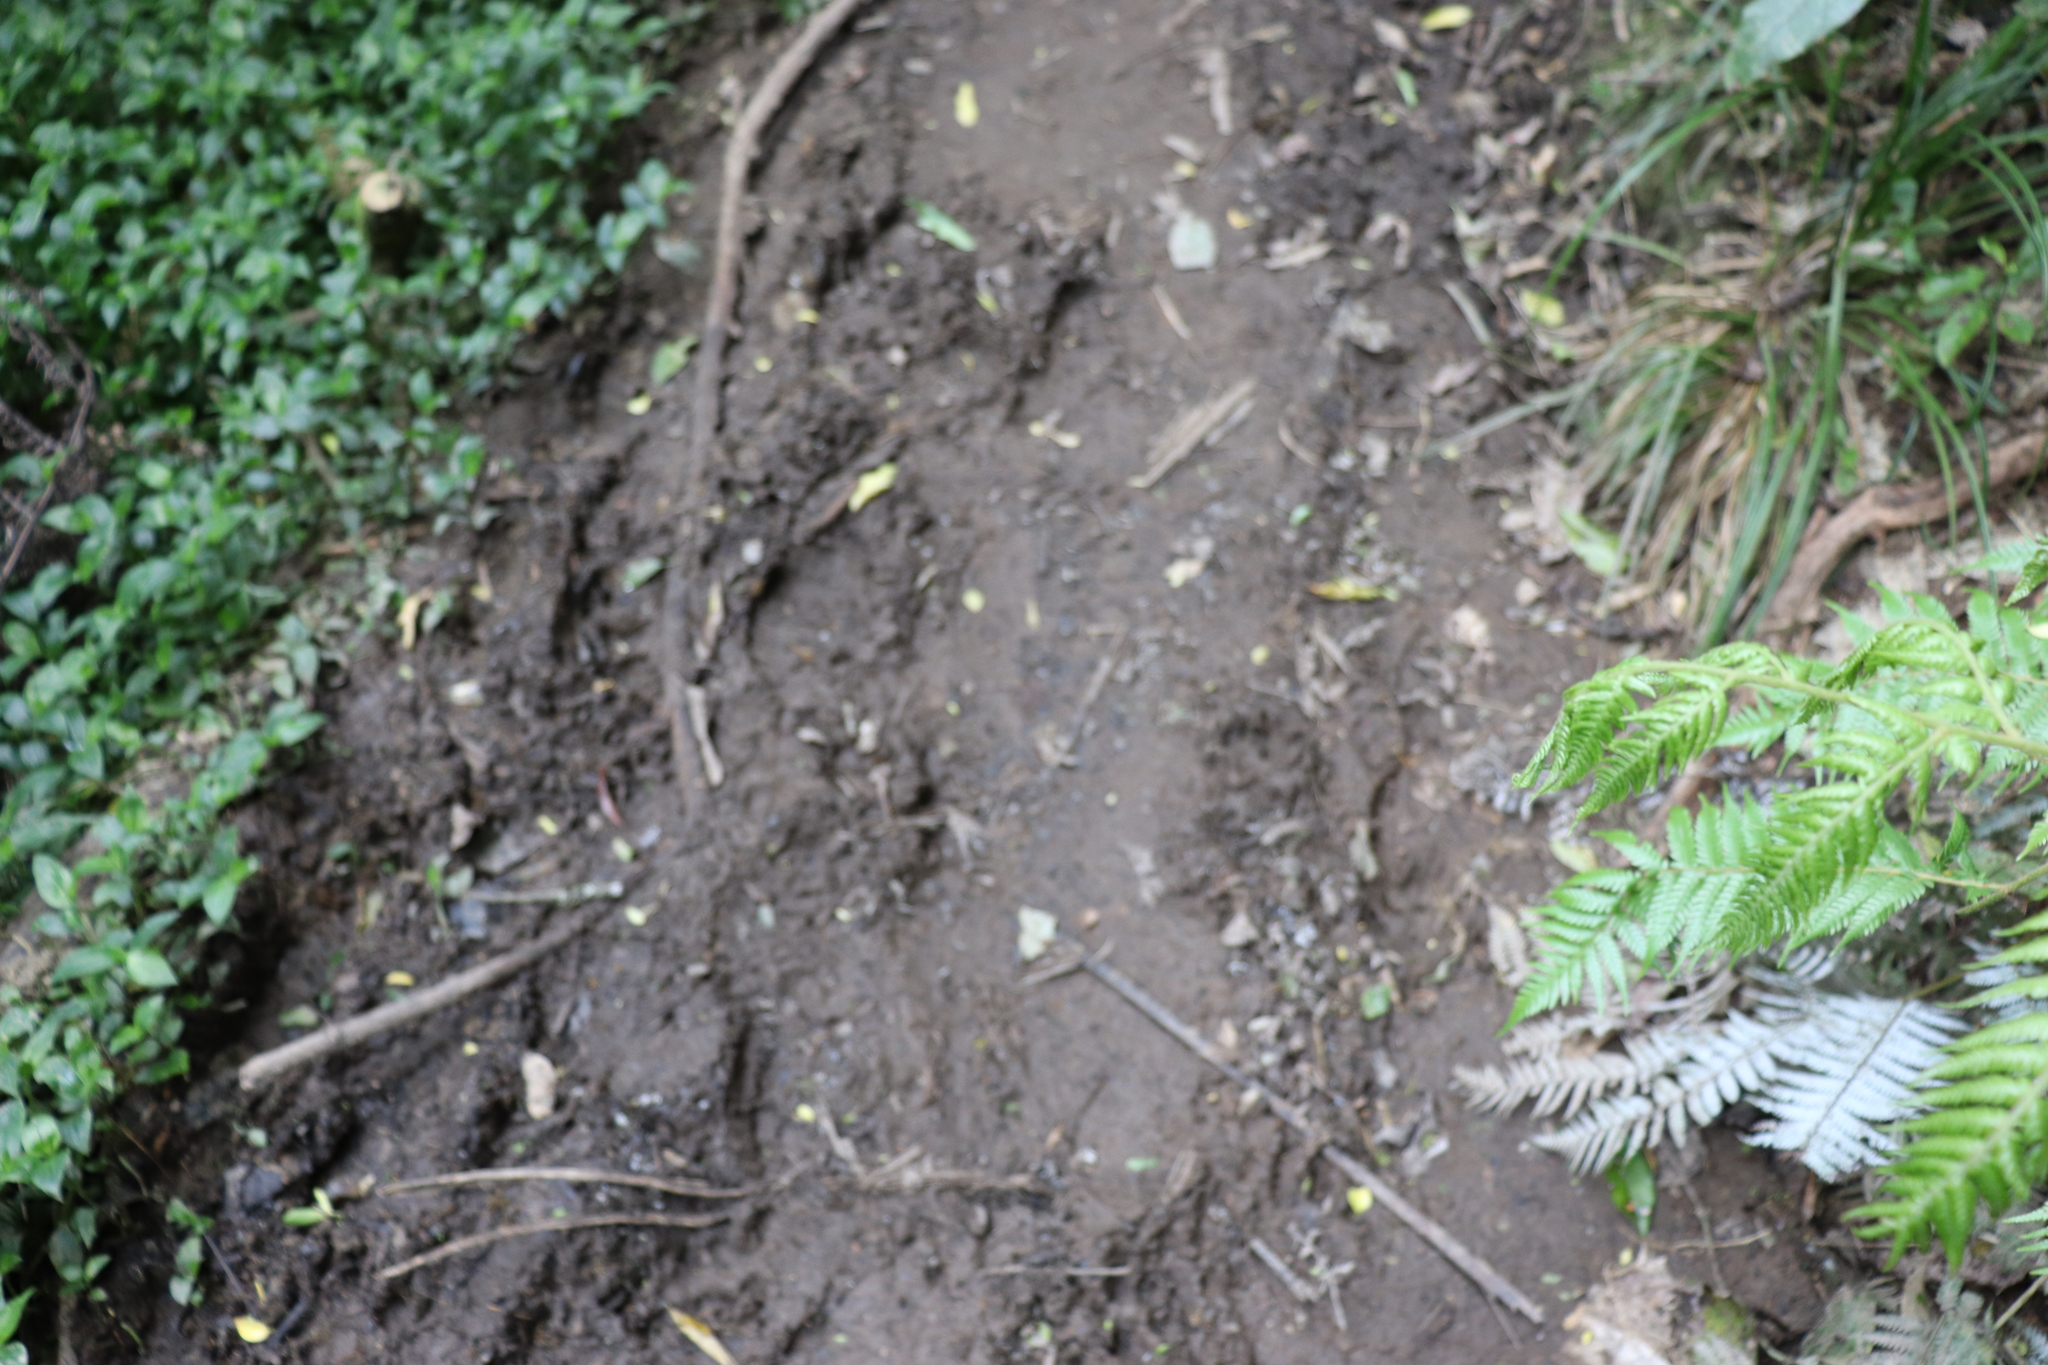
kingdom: Plantae
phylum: Tracheophyta
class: Polypodiopsida
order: Cyatheales
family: Cyatheaceae
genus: Alsophila
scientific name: Alsophila dealbata
